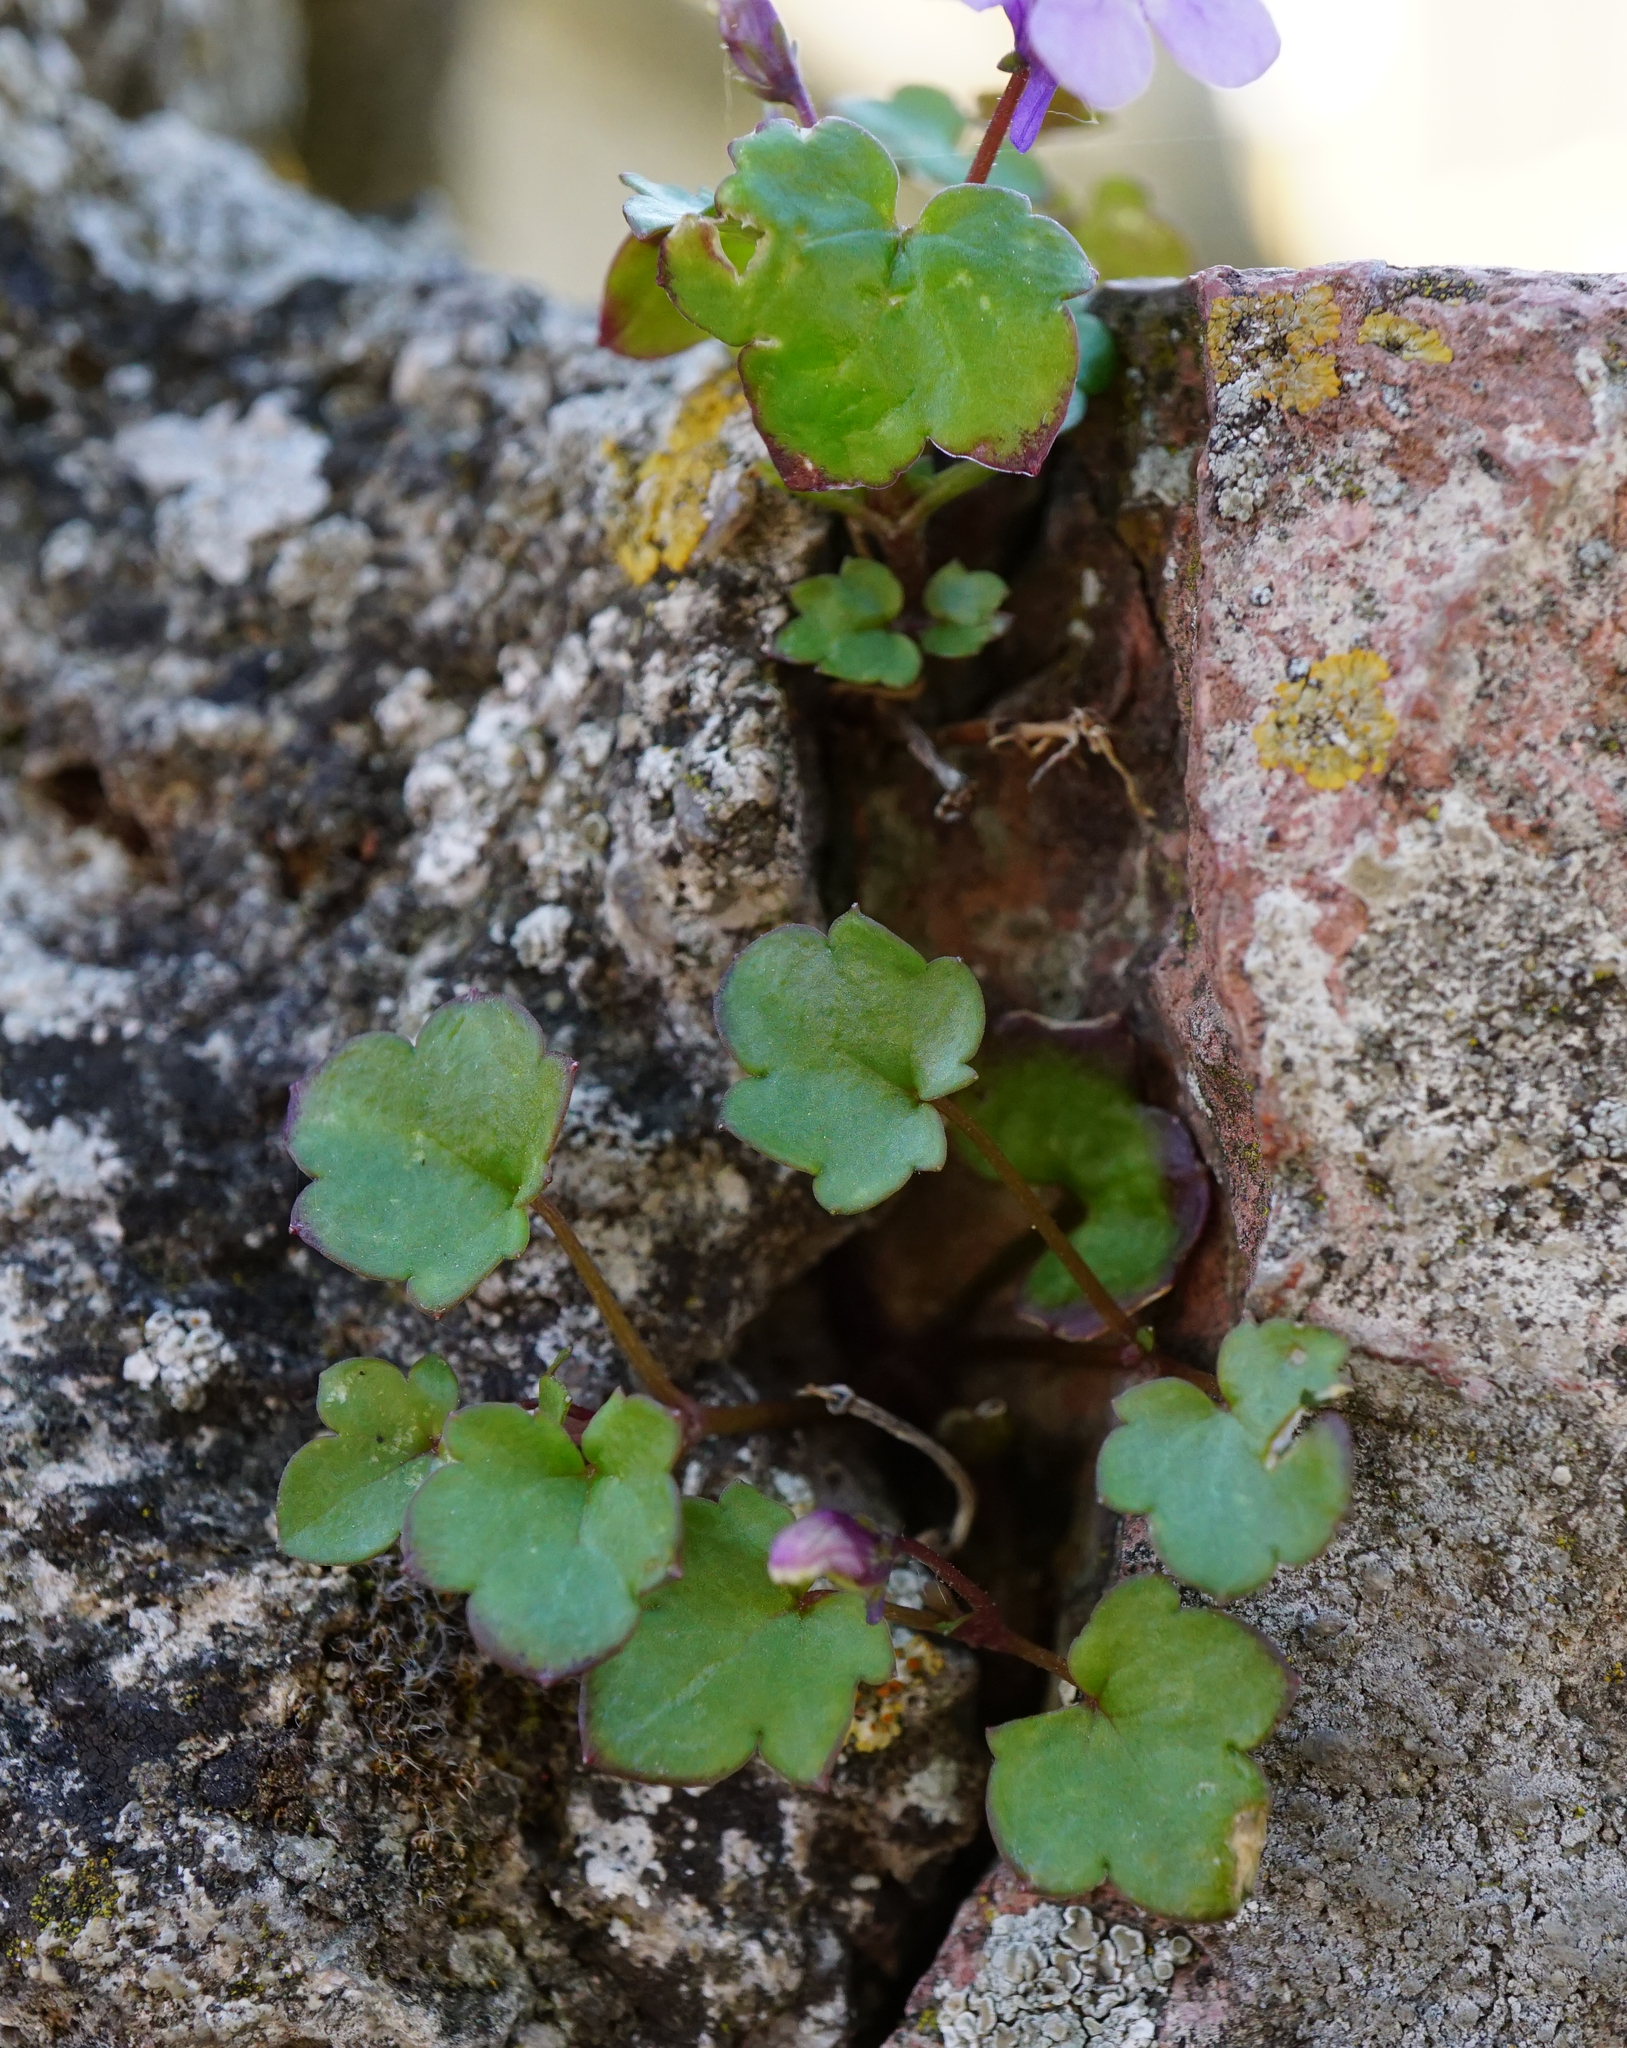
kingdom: Plantae
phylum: Tracheophyta
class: Magnoliopsida
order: Lamiales
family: Plantaginaceae
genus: Cymbalaria
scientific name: Cymbalaria muralis
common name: Ivy-leaved toadflax
